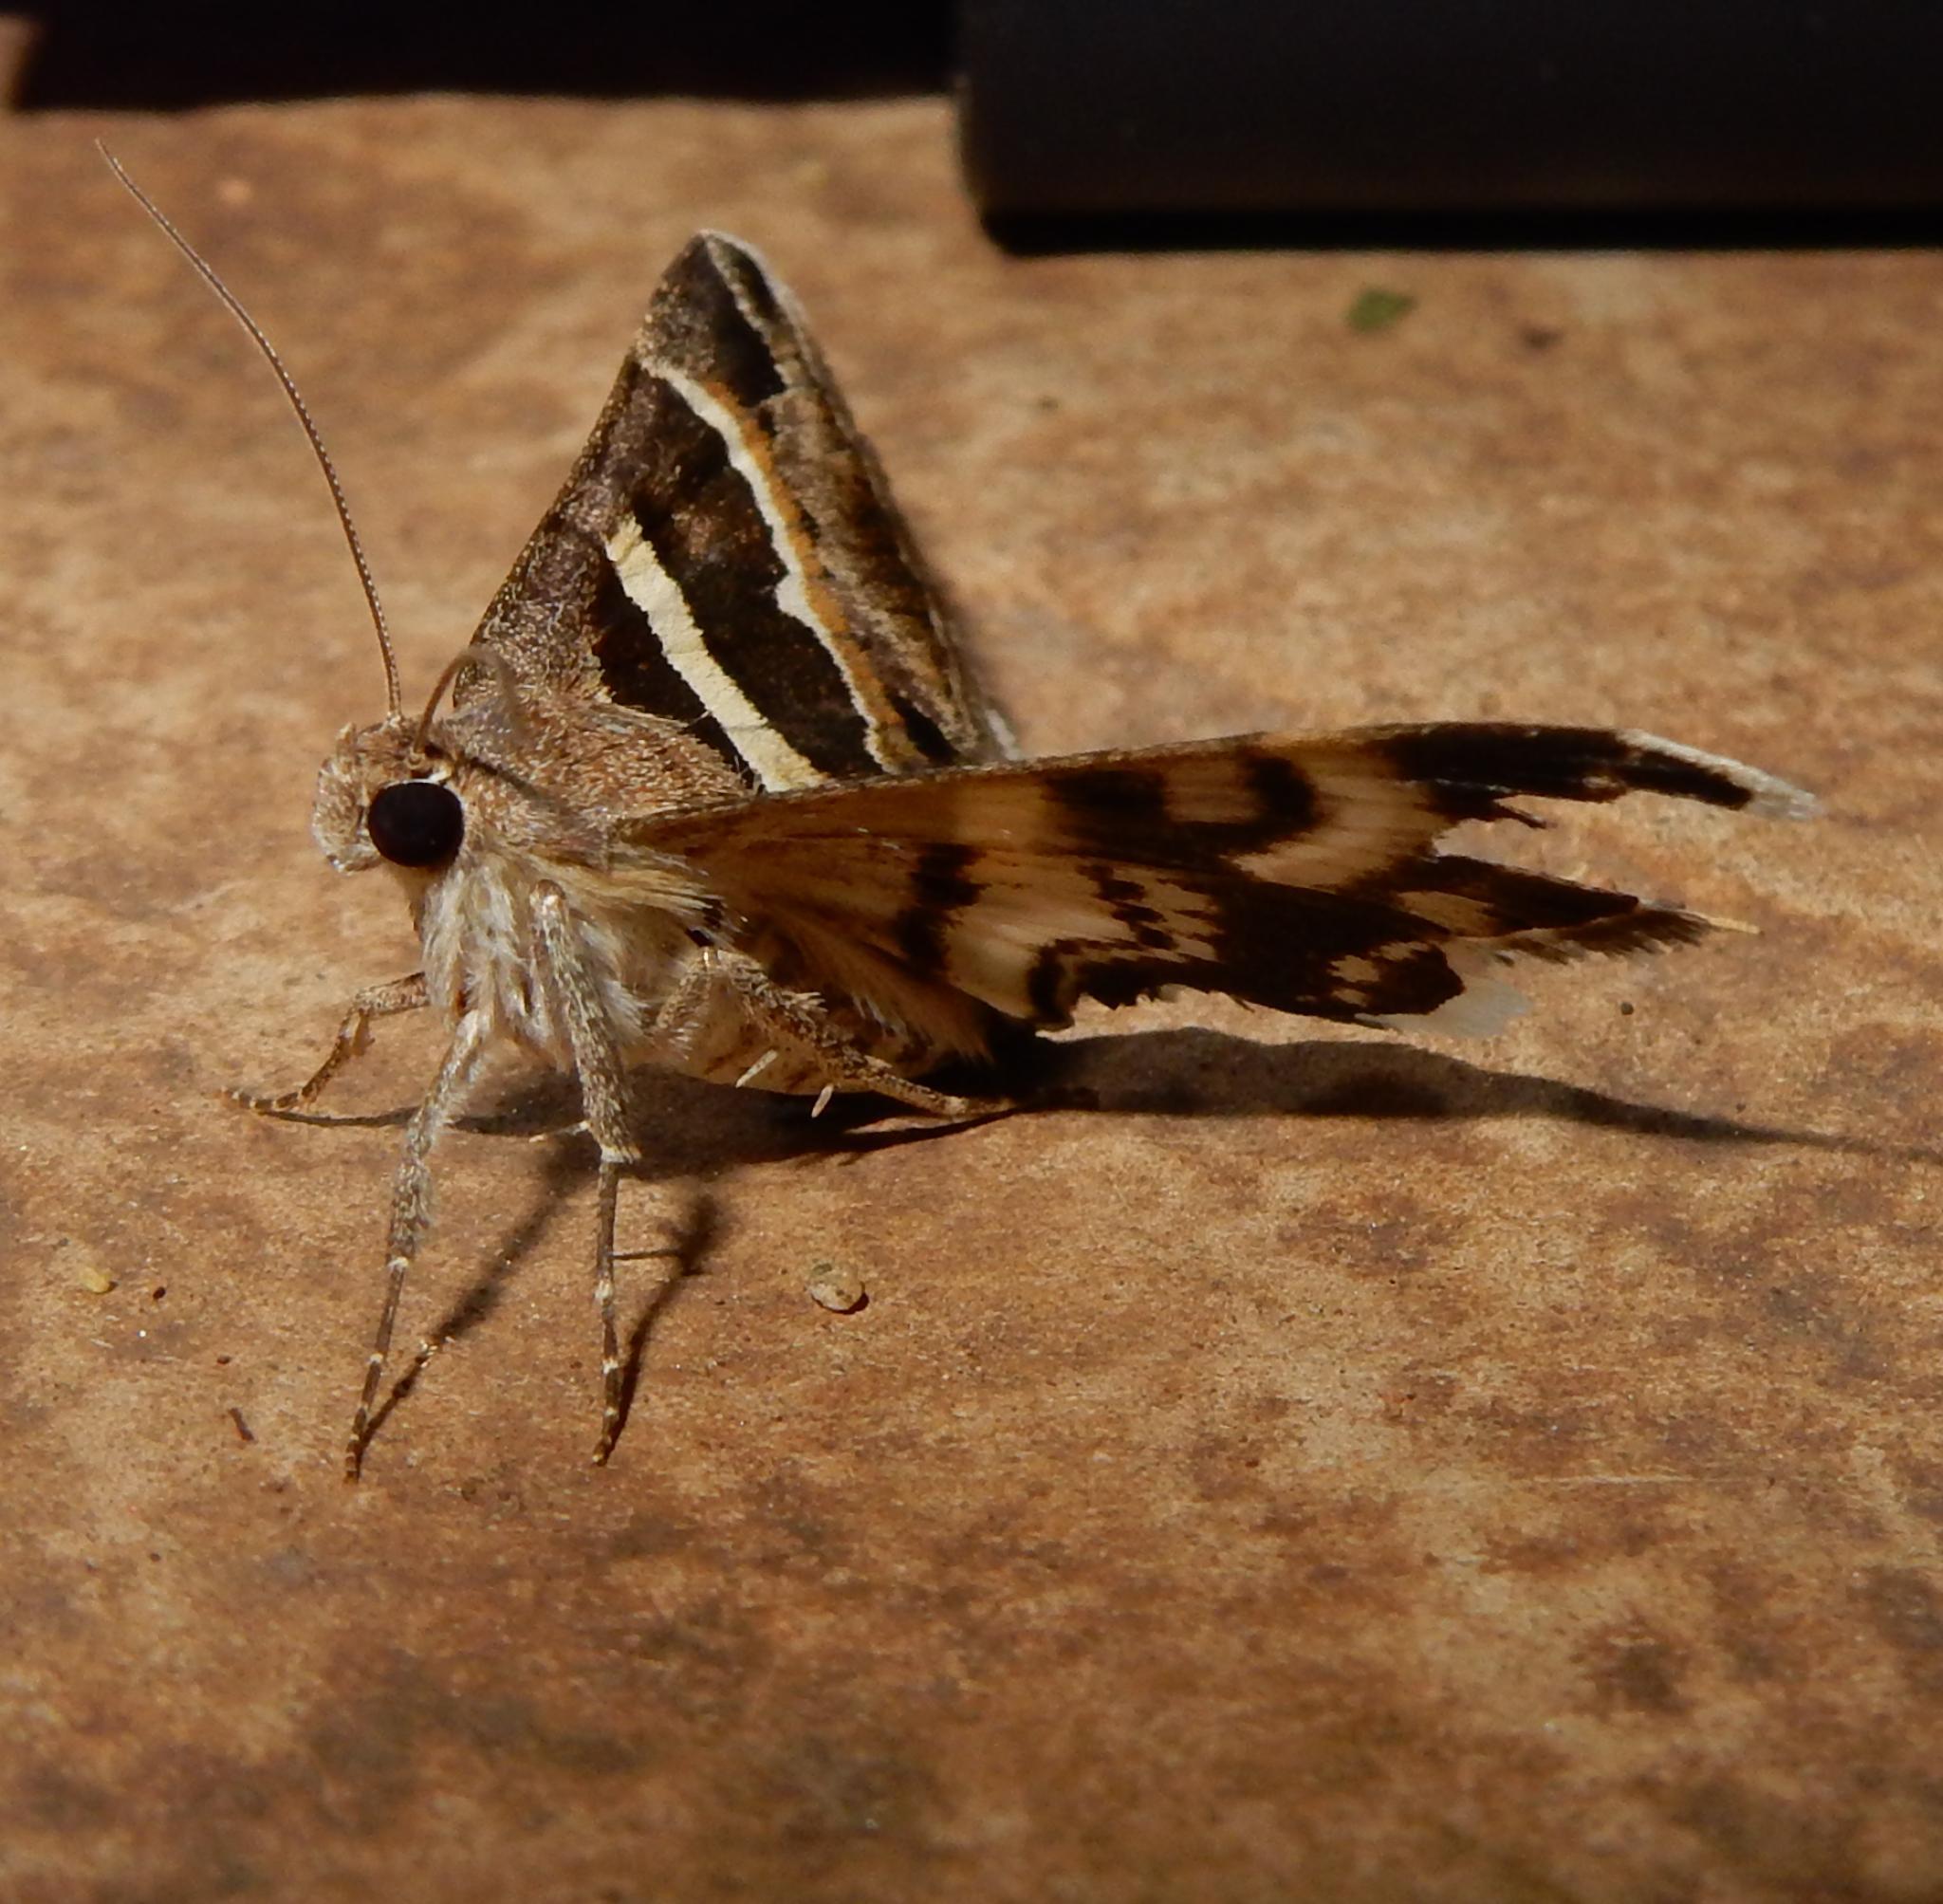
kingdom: Animalia
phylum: Arthropoda
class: Insecta
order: Lepidoptera
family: Erebidae
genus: Grammodes
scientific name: Grammodes stolida
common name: Geometrician
